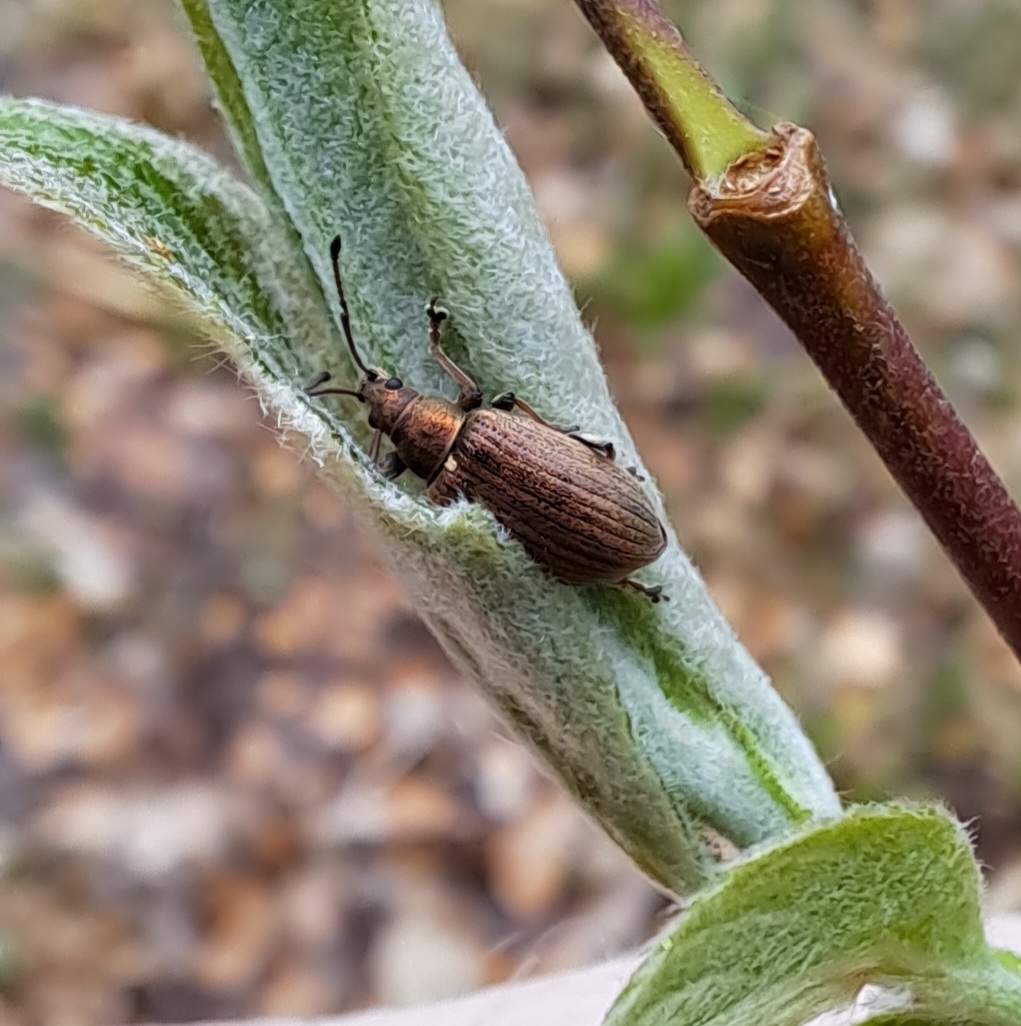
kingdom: Animalia
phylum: Arthropoda
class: Insecta
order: Coleoptera
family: Curculionidae
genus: Phyllobius
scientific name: Phyllobius pyri
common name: Common leaf weevil
